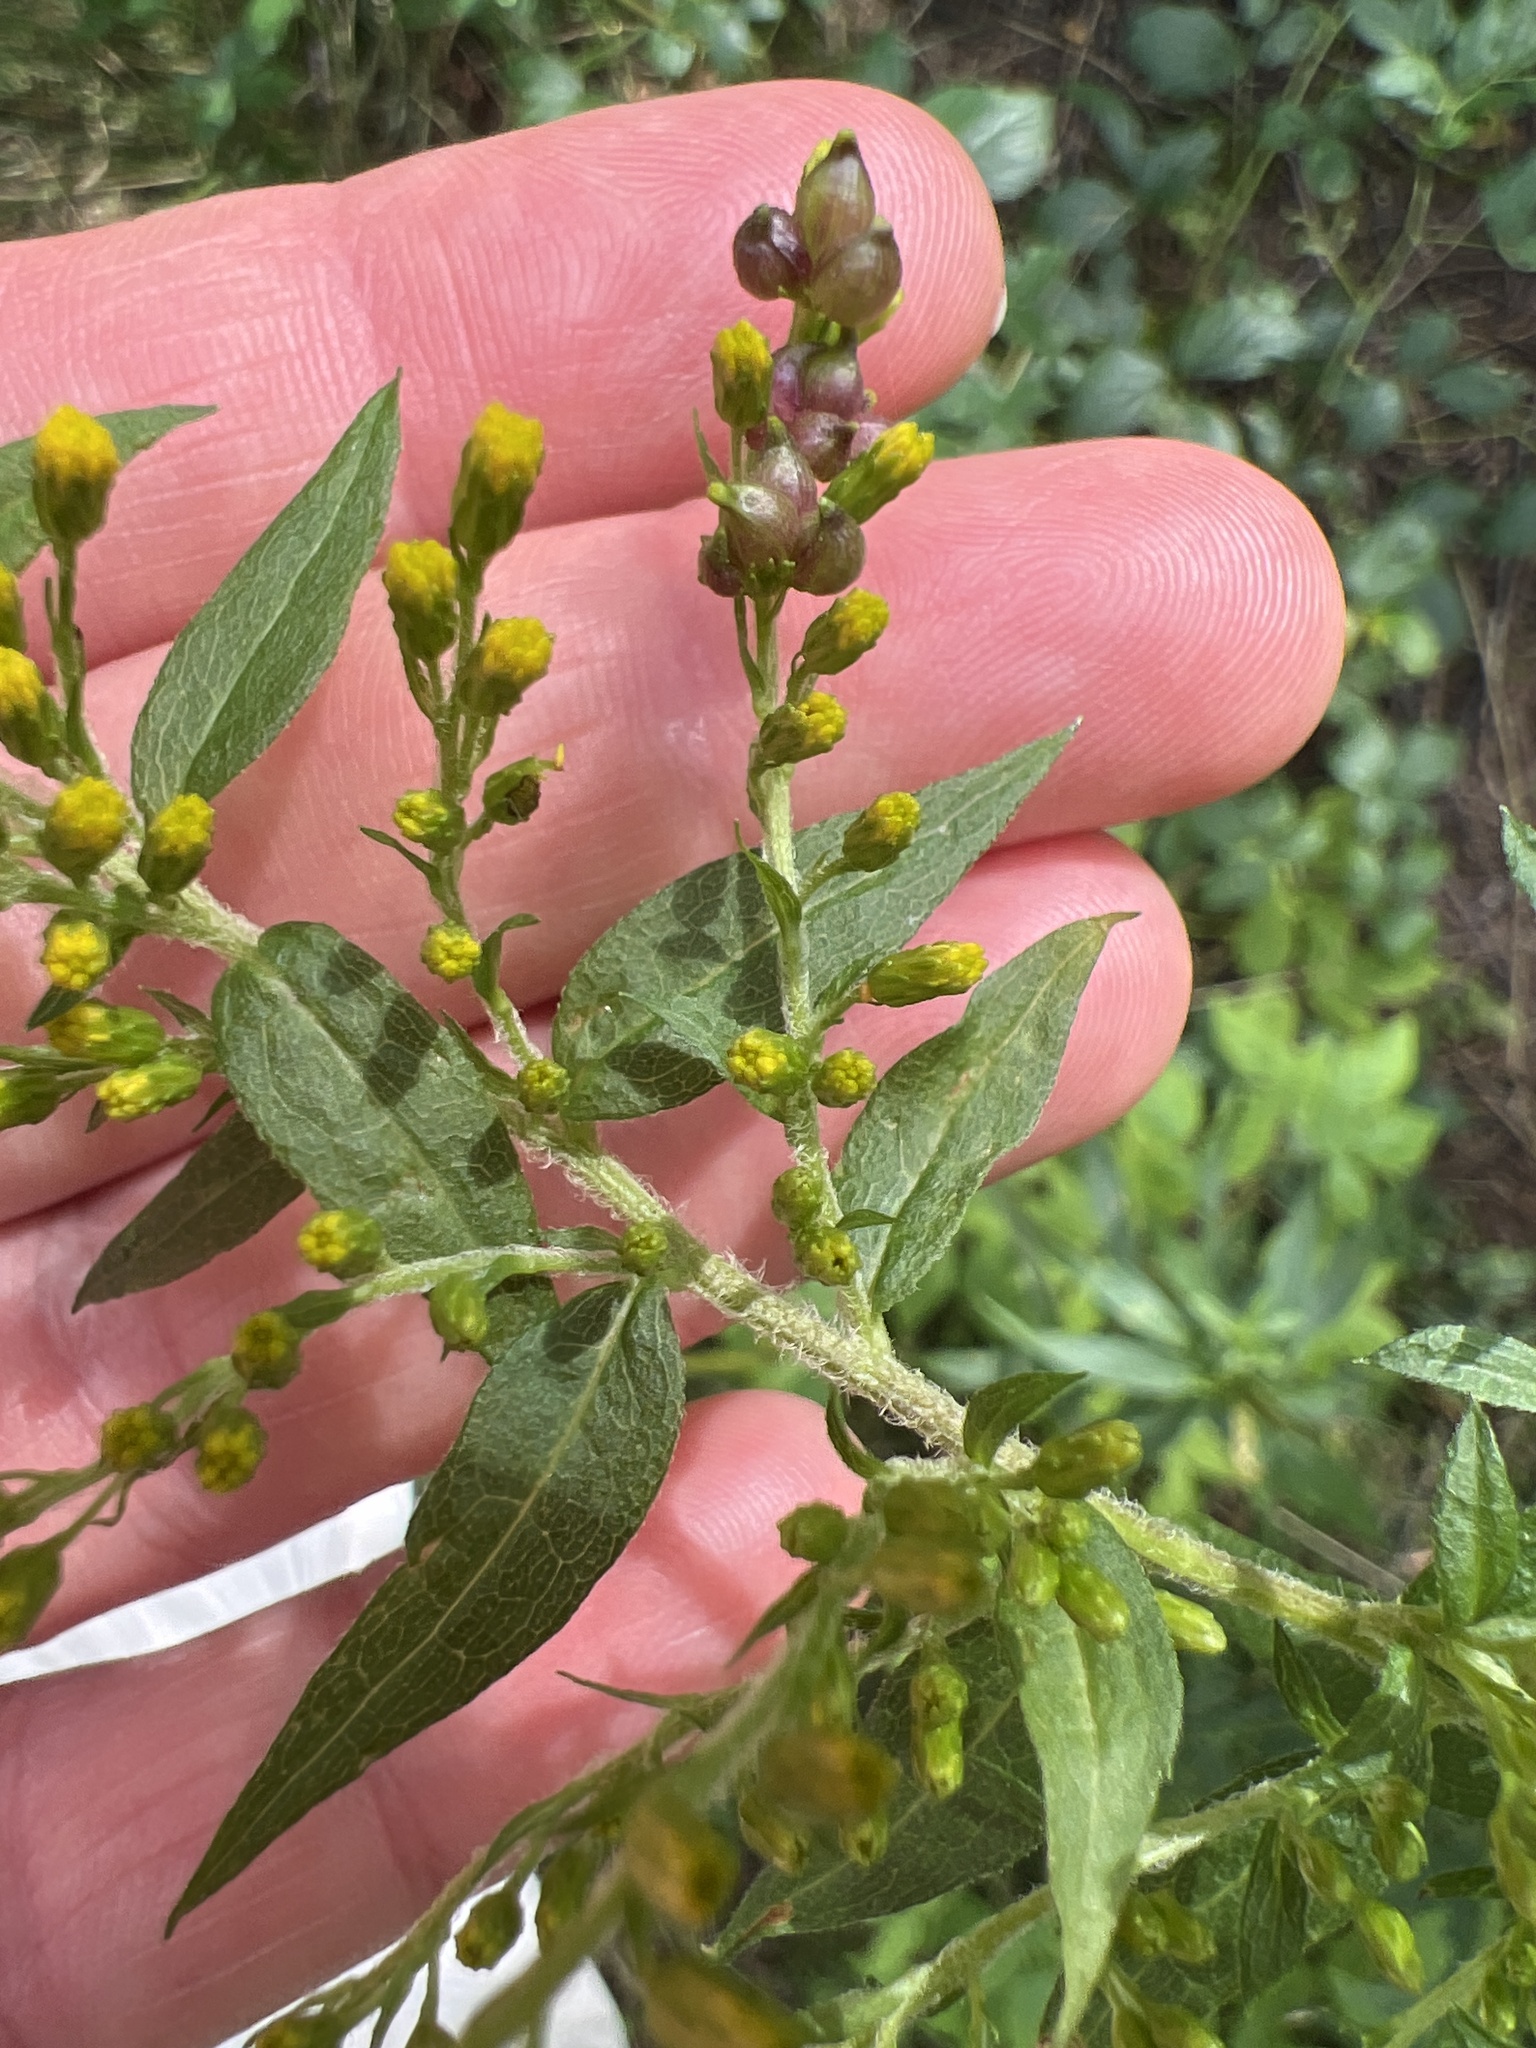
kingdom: Animalia
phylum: Arthropoda
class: Insecta
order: Diptera
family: Cecidomyiidae
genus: Schizomyia
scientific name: Schizomyia racemicola
